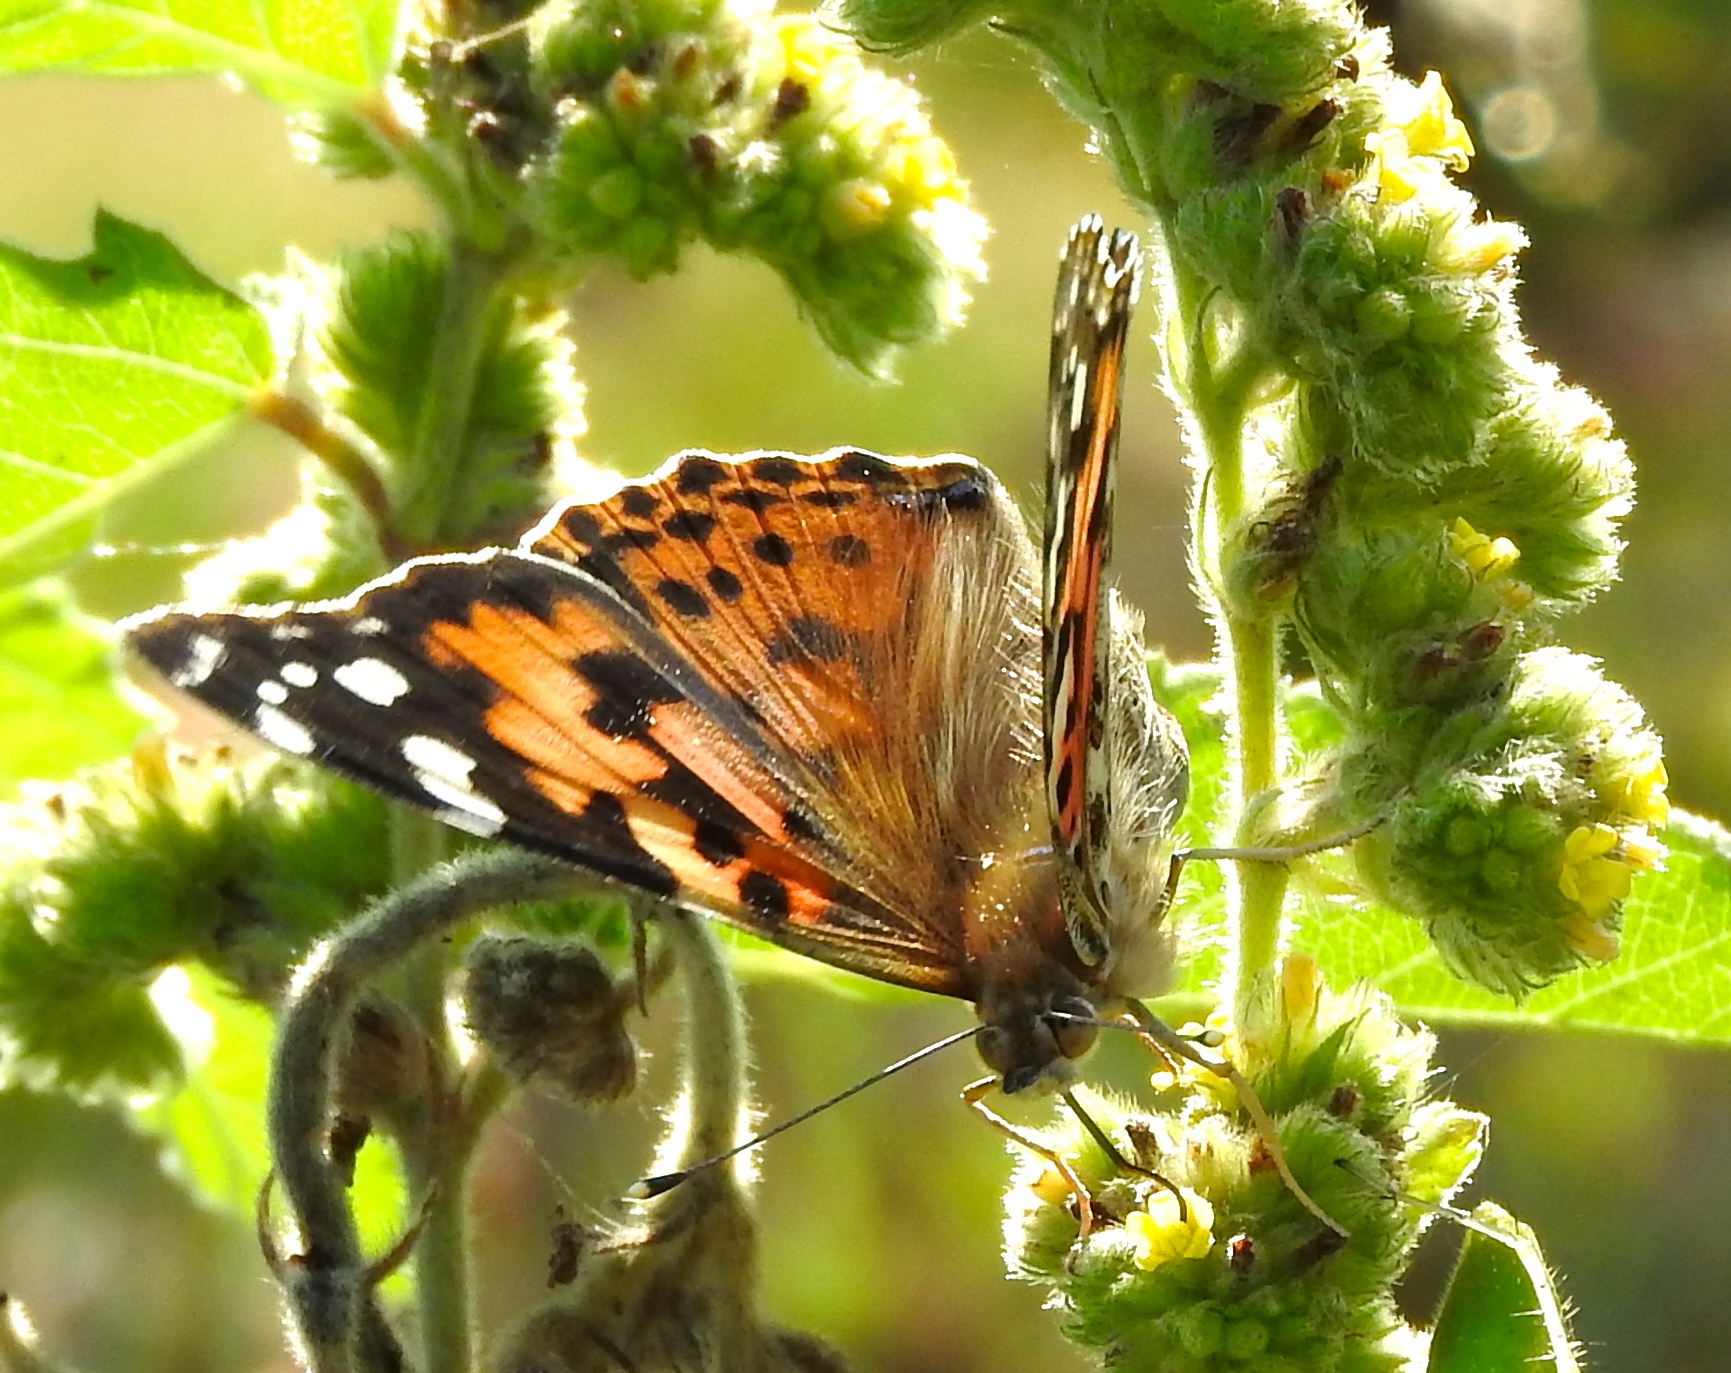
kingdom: Animalia
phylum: Arthropoda
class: Insecta
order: Lepidoptera
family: Nymphalidae
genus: Vanessa
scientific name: Vanessa cardui
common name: Painted lady
